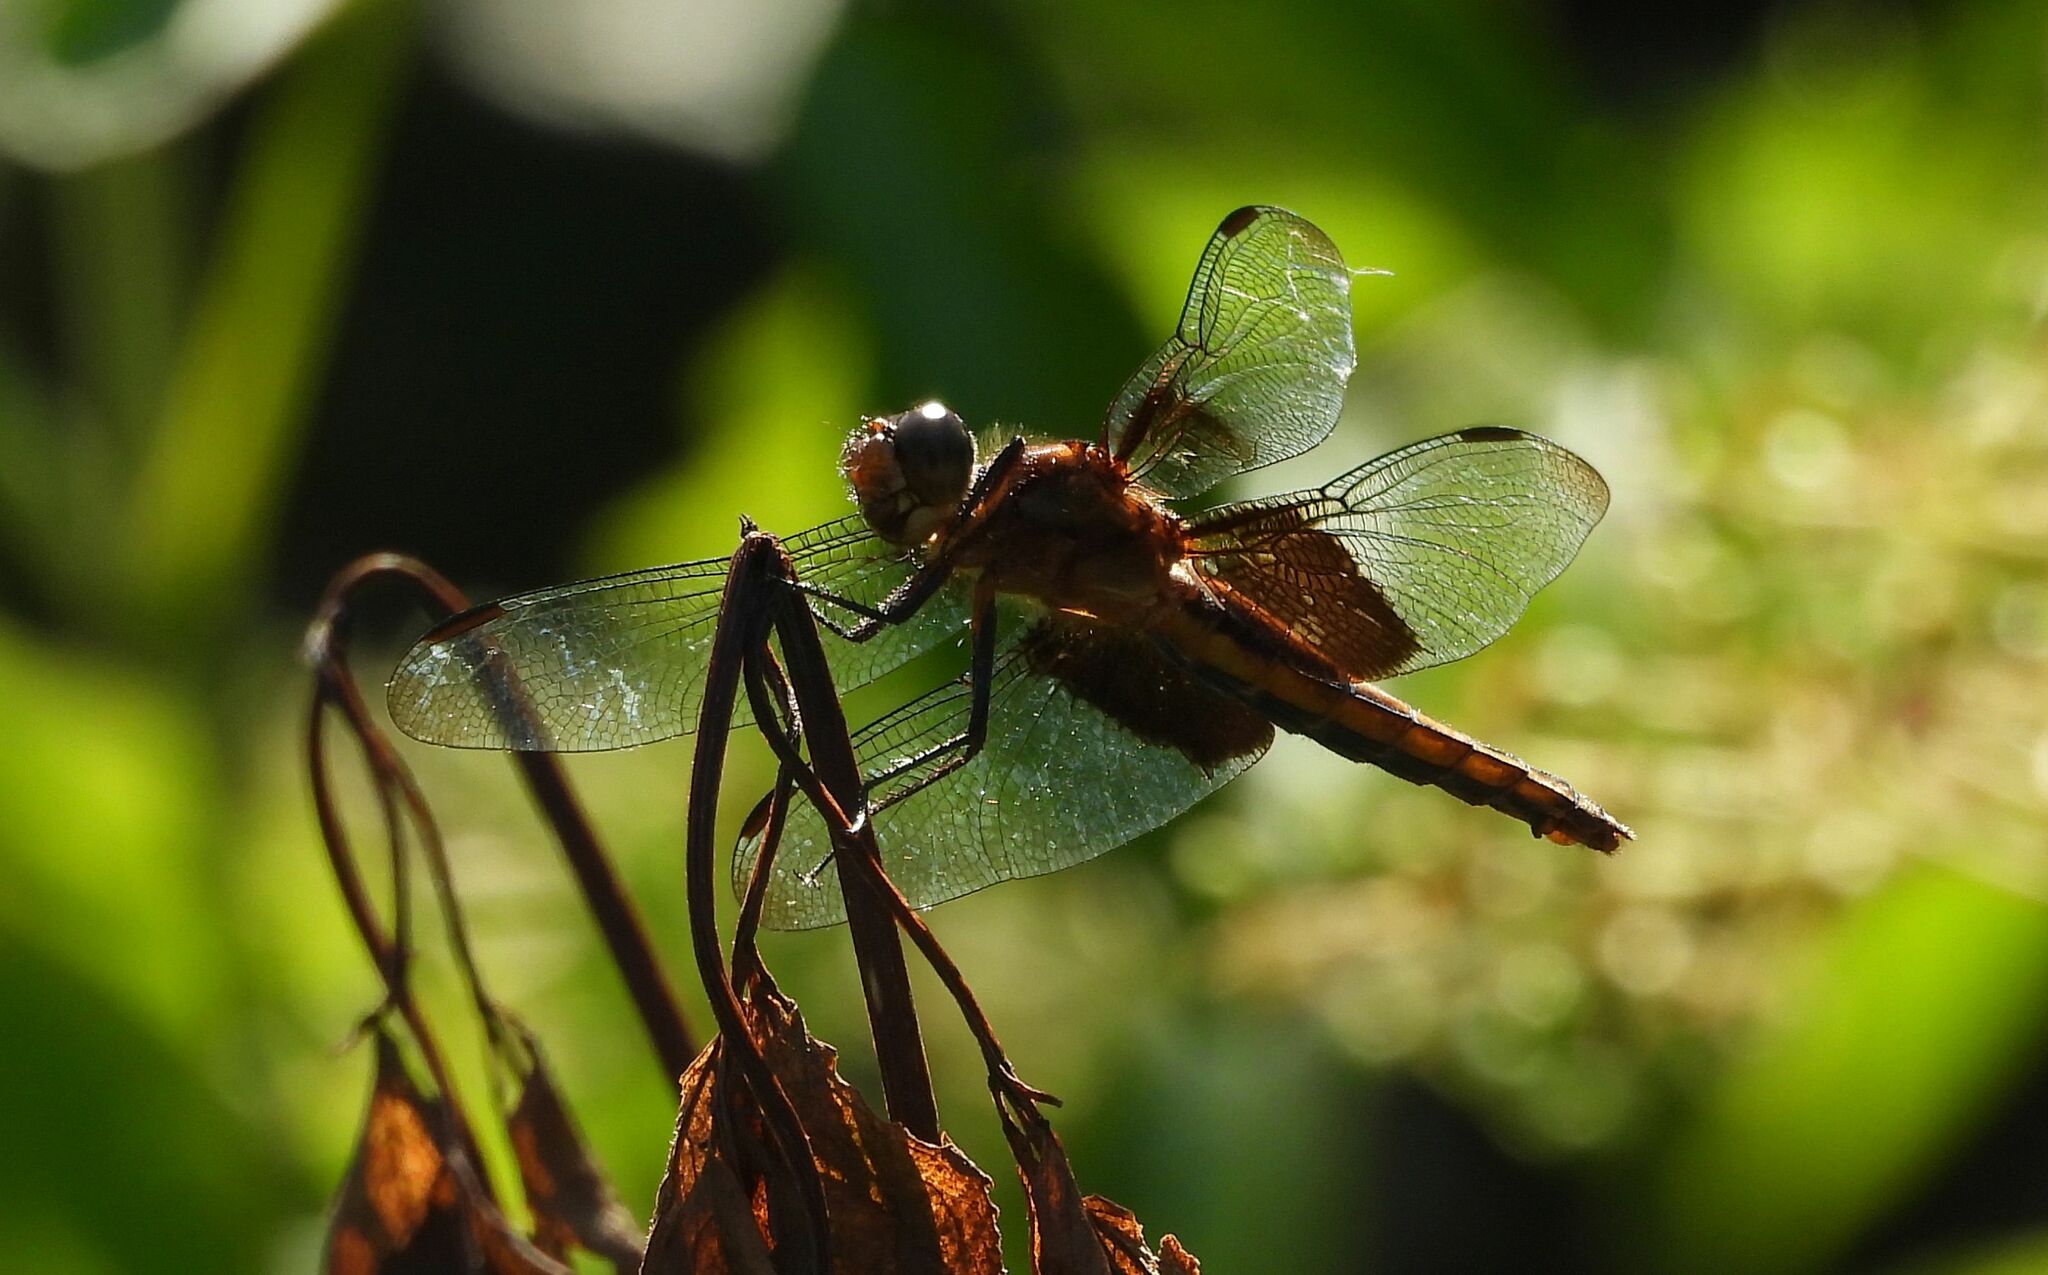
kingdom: Animalia
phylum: Arthropoda
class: Insecta
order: Odonata
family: Libellulidae
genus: Libellula
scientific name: Libellula luctuosa
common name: Widow skimmer
